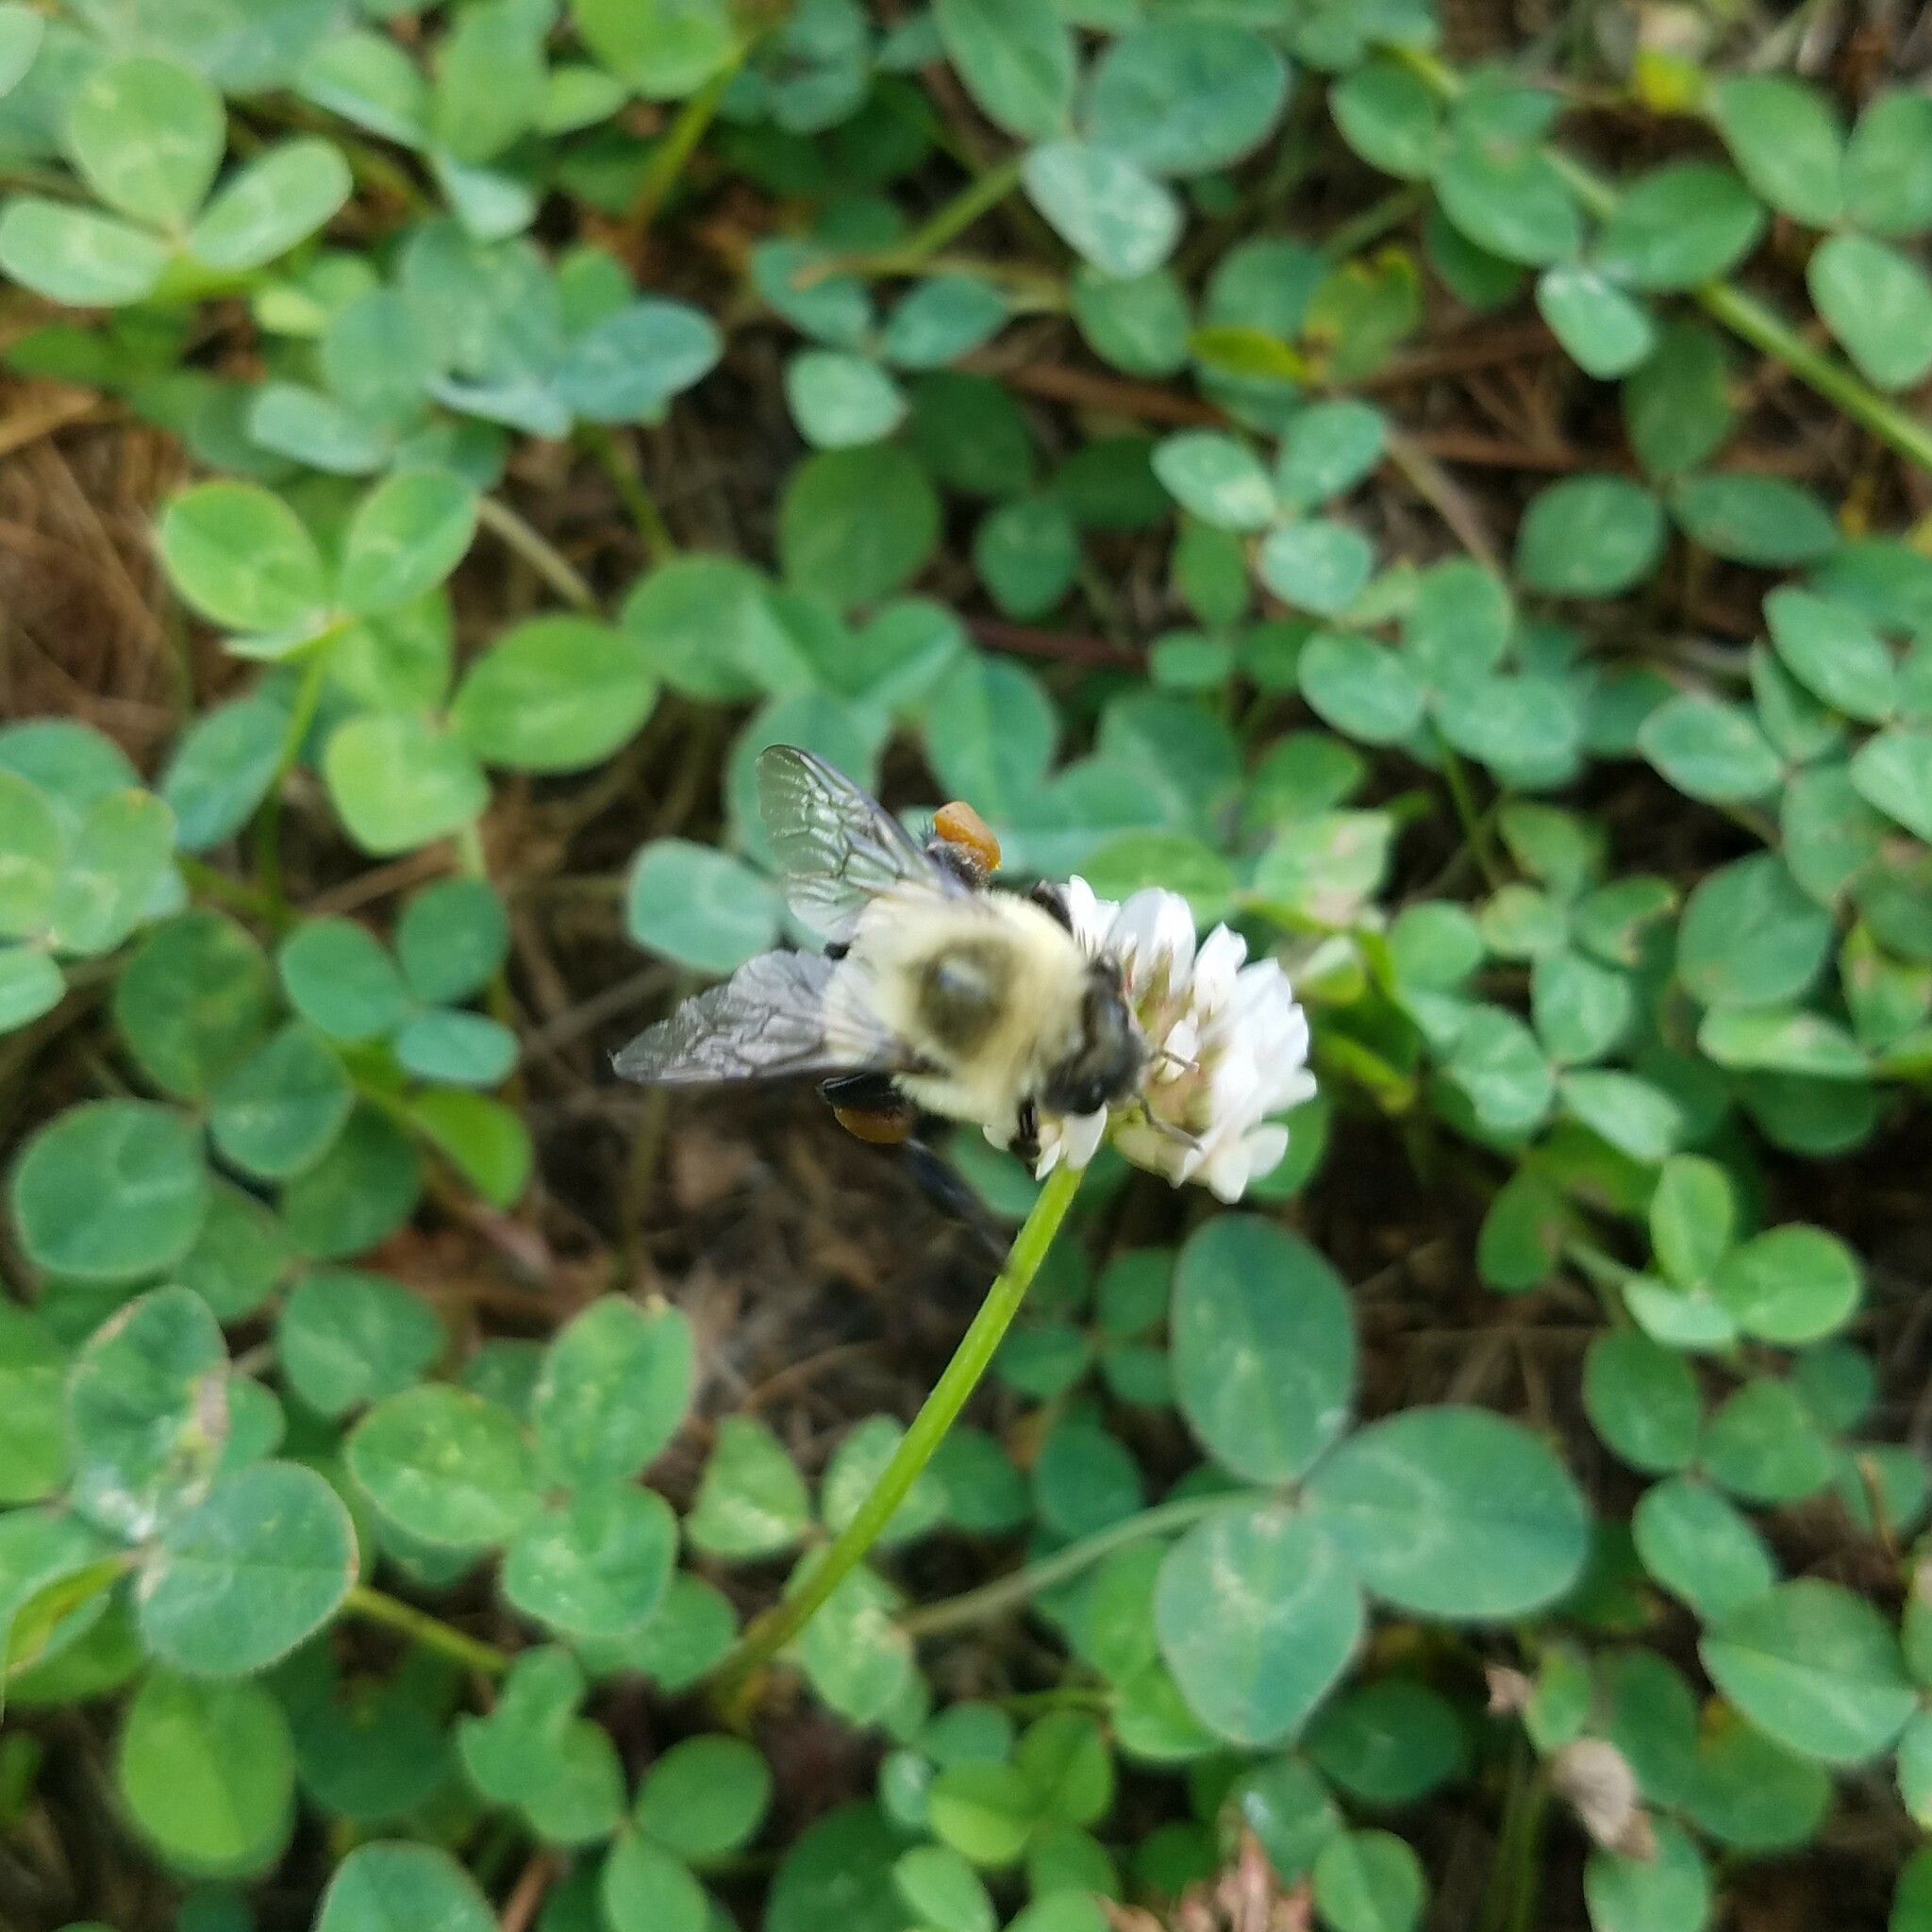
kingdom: Animalia
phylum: Arthropoda
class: Insecta
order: Hymenoptera
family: Apidae
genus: Bombus
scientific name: Bombus impatiens
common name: Common eastern bumble bee
